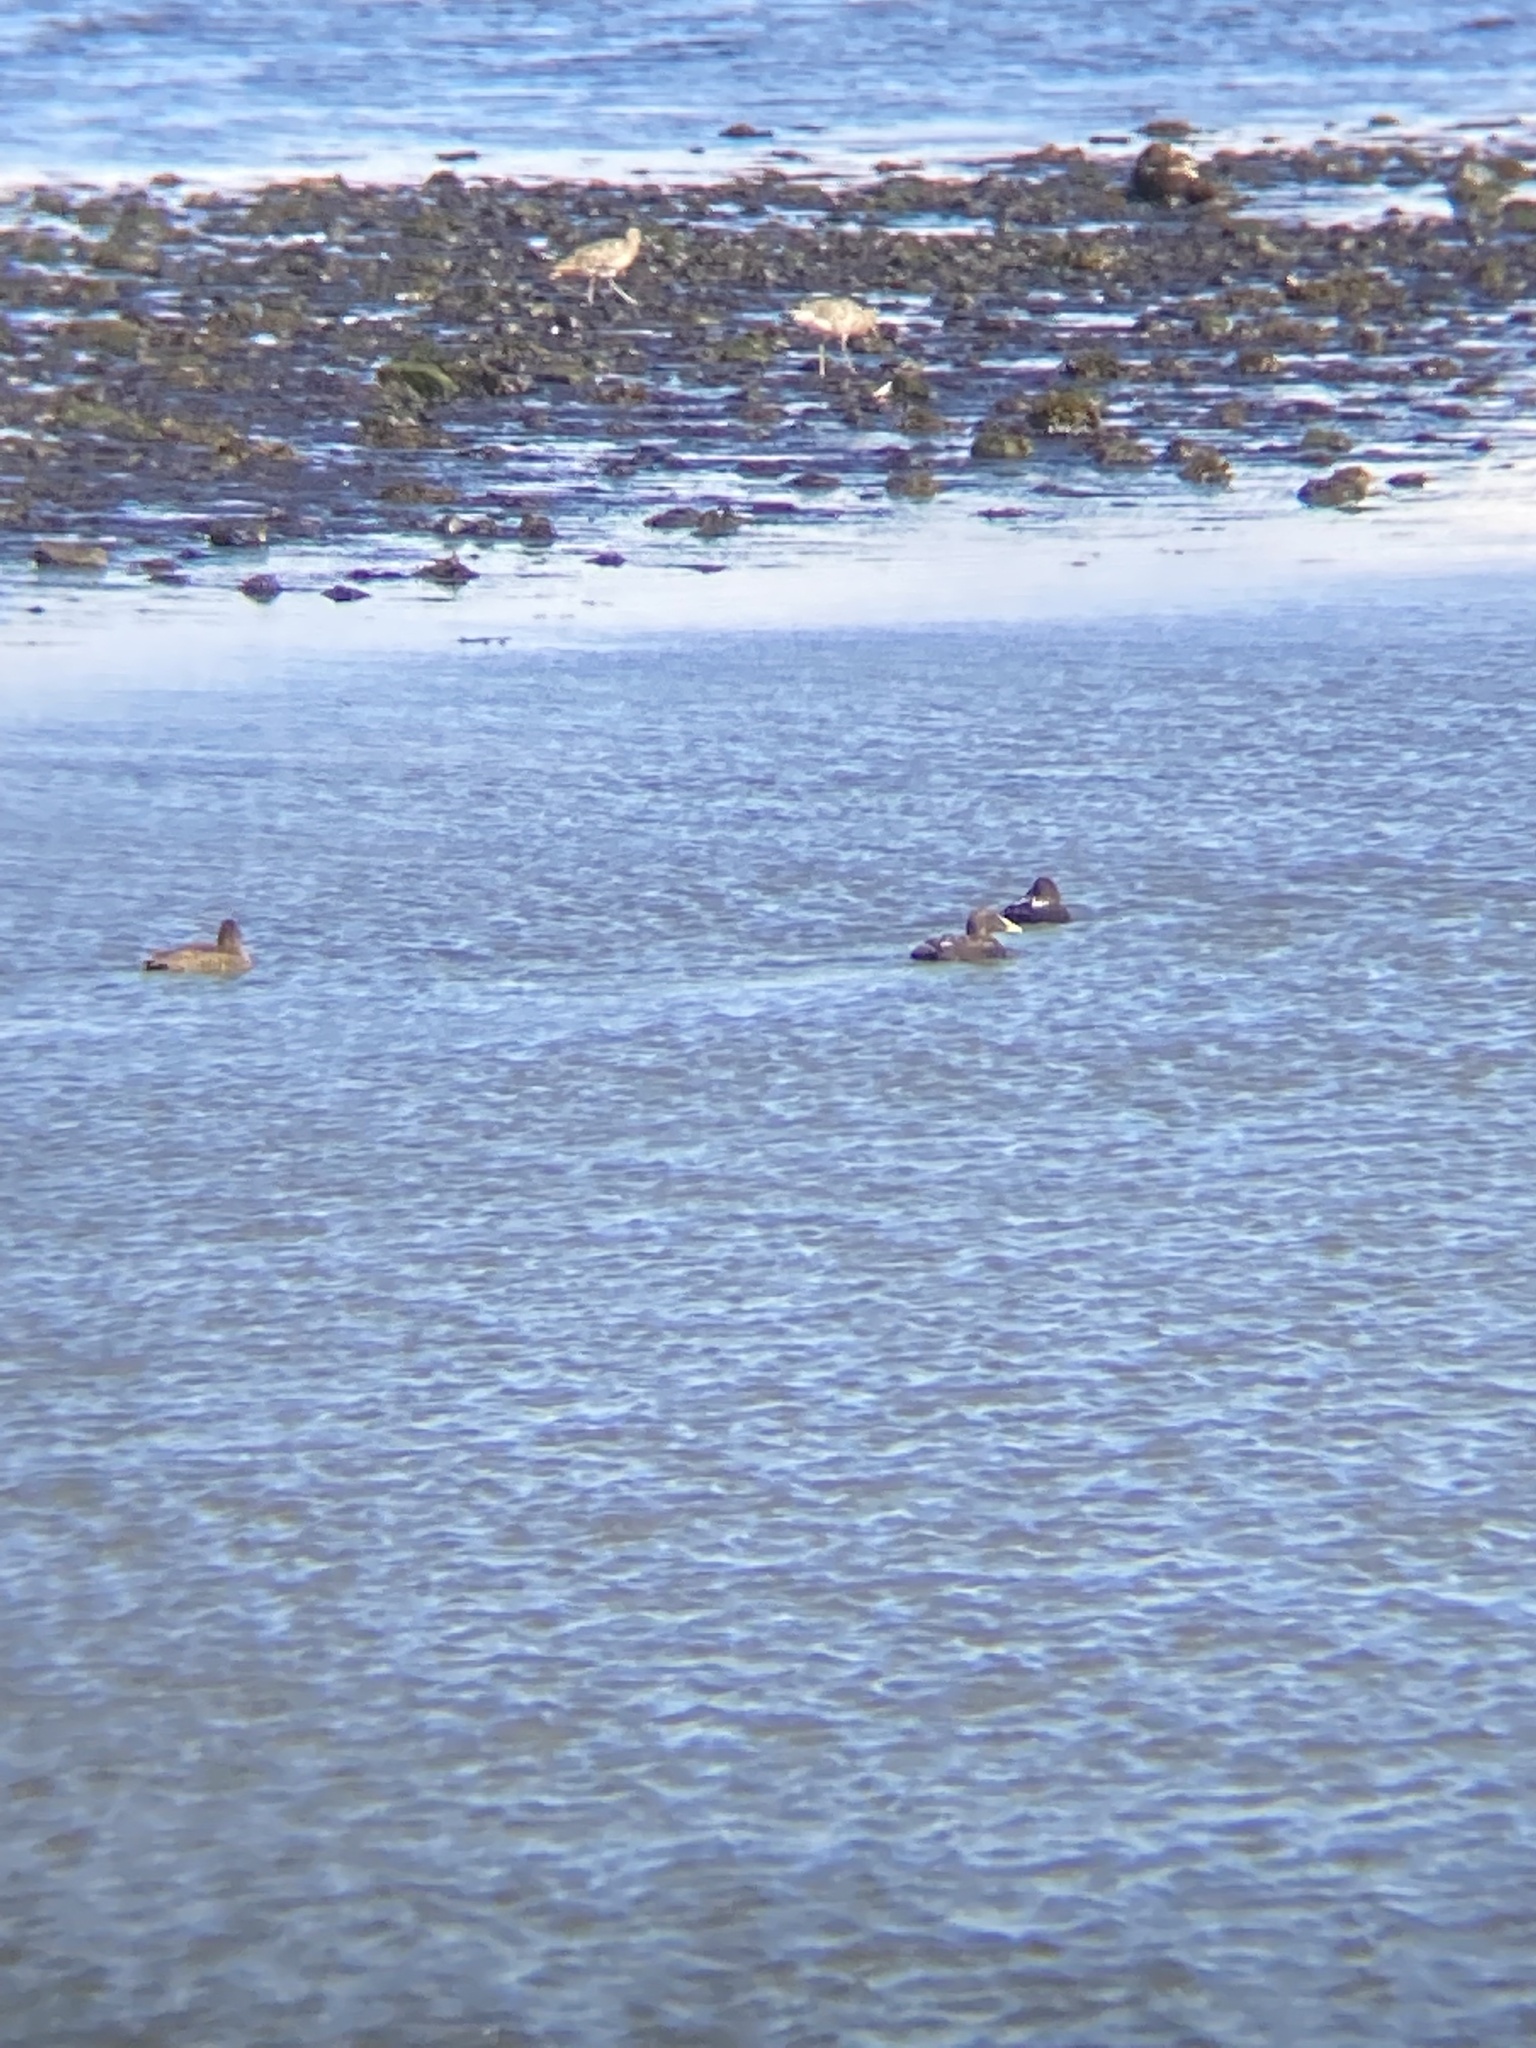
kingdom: Animalia
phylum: Chordata
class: Aves
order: Anseriformes
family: Anatidae
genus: Somateria
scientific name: Somateria mollissima
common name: Common eider
